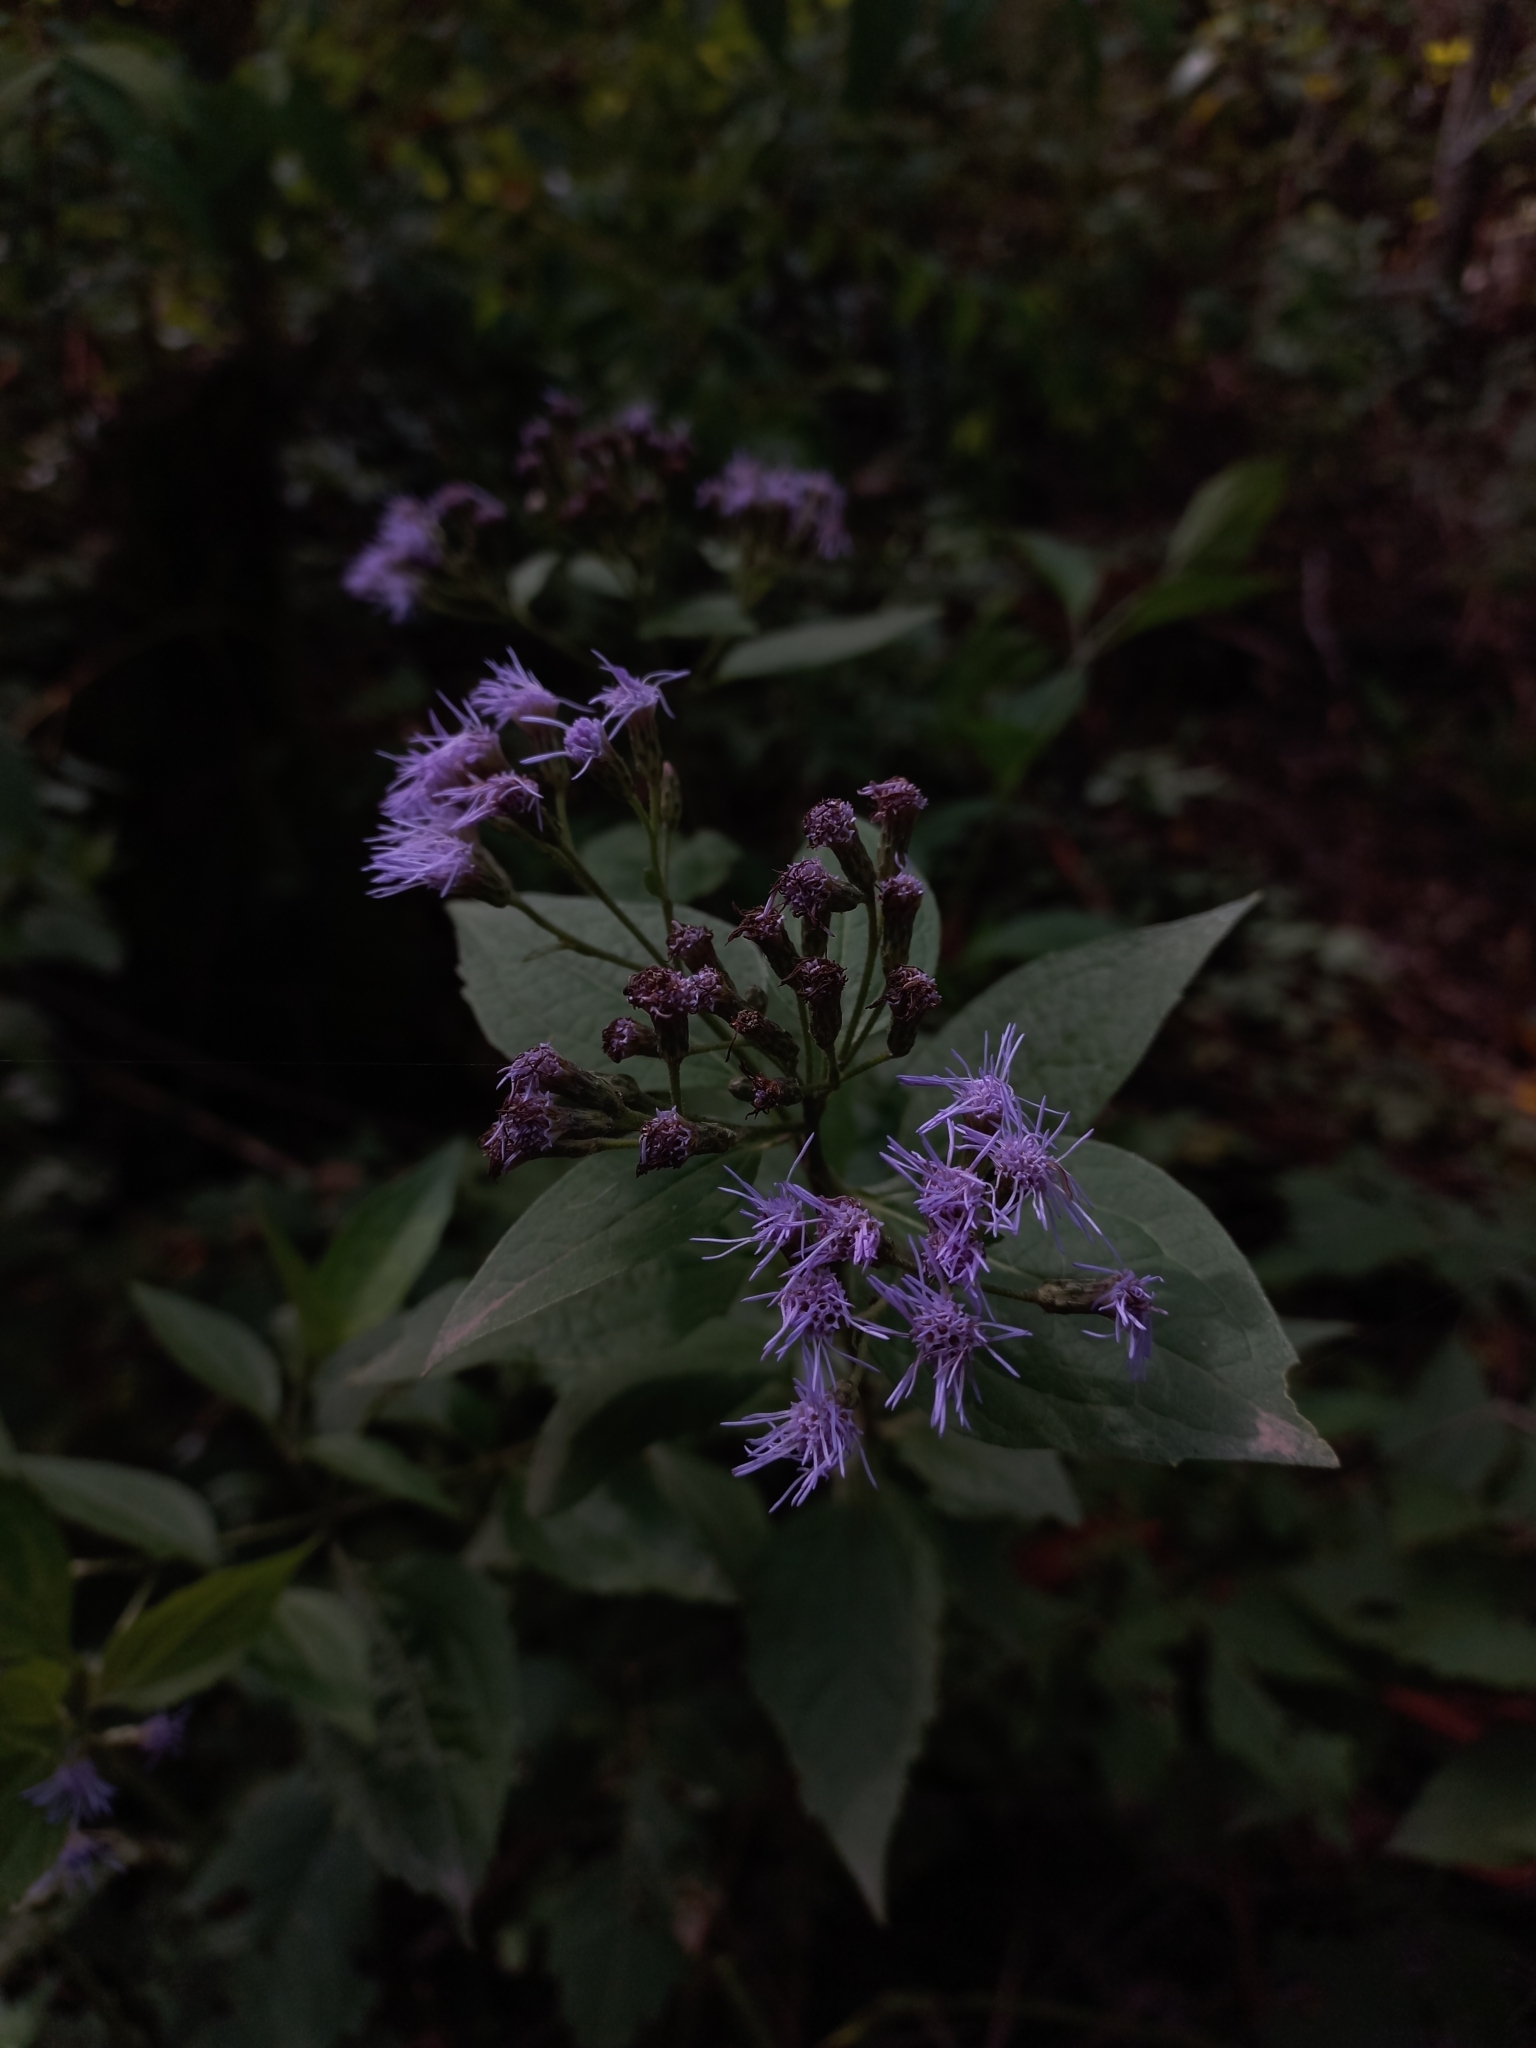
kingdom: Plantae
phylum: Tracheophyta
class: Magnoliopsida
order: Asterales
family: Asteraceae
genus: Chromolaena
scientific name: Chromolaena hookeriana
